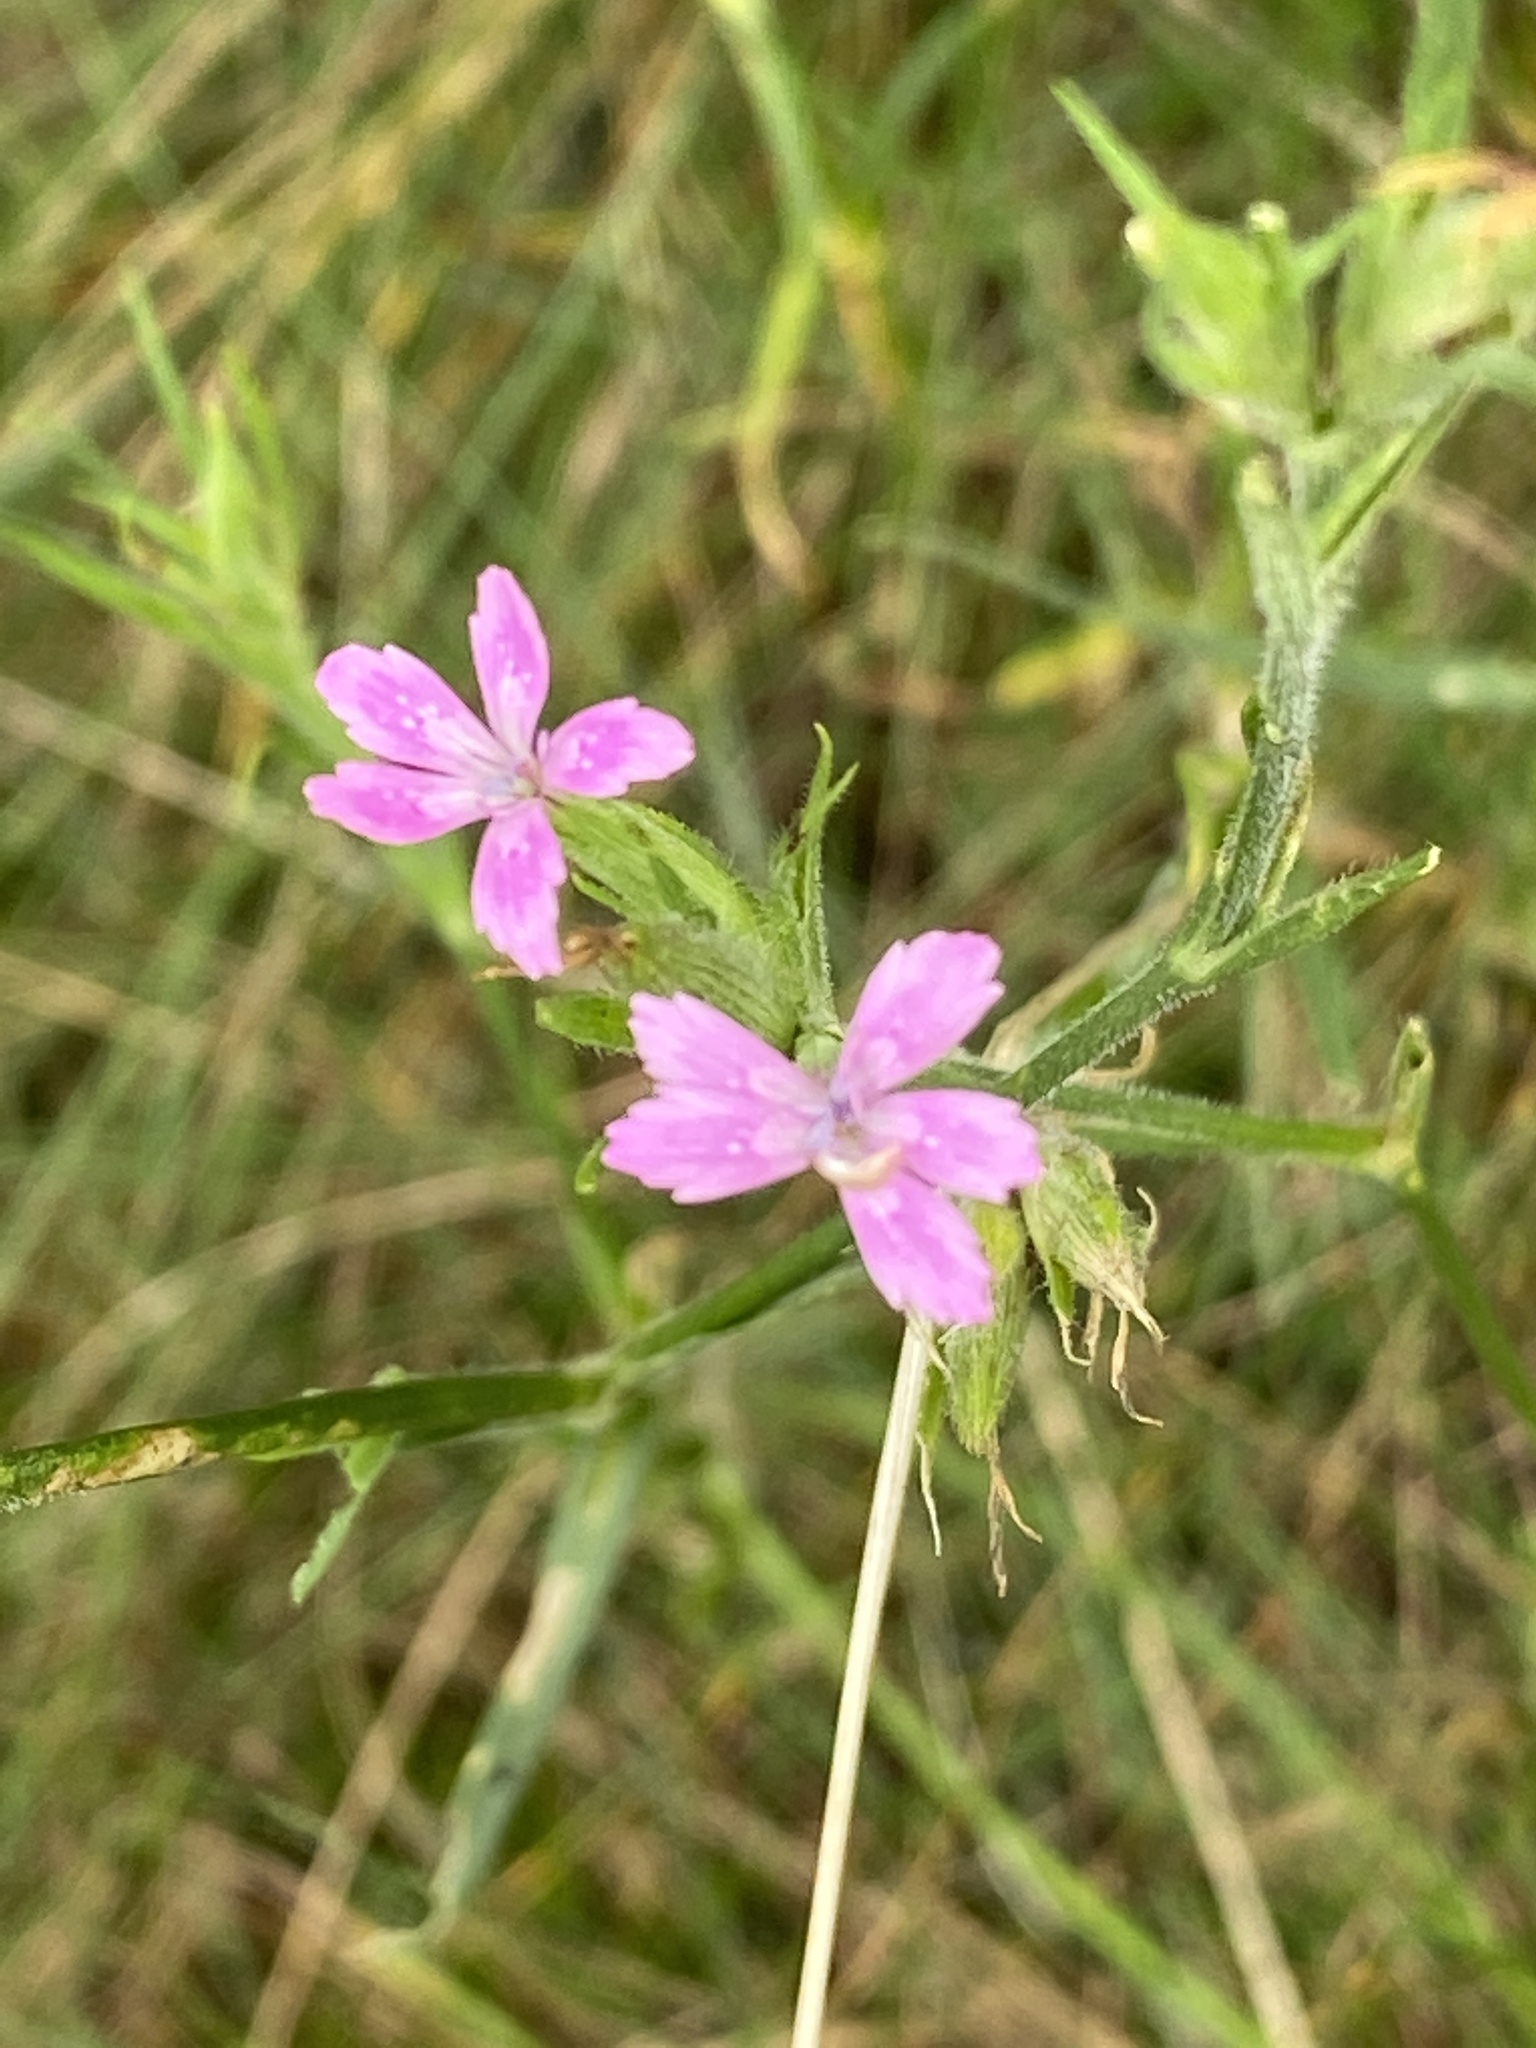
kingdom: Plantae
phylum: Tracheophyta
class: Magnoliopsida
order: Caryophyllales
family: Caryophyllaceae
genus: Dianthus
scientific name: Dianthus armeria
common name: Deptford pink
